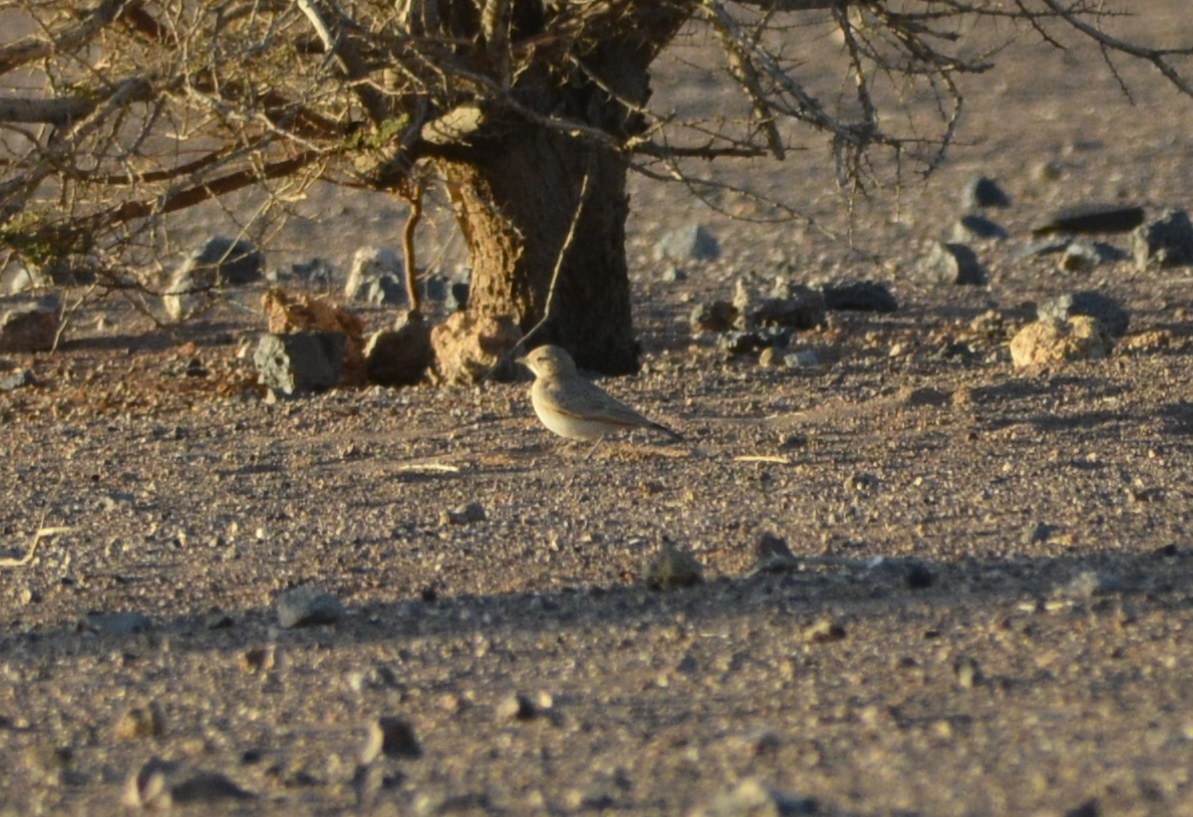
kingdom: Animalia
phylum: Chordata
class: Aves
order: Passeriformes
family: Alaudidae
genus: Ammomanes
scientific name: Ammomanes cinctura
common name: Bar-tailed lark
